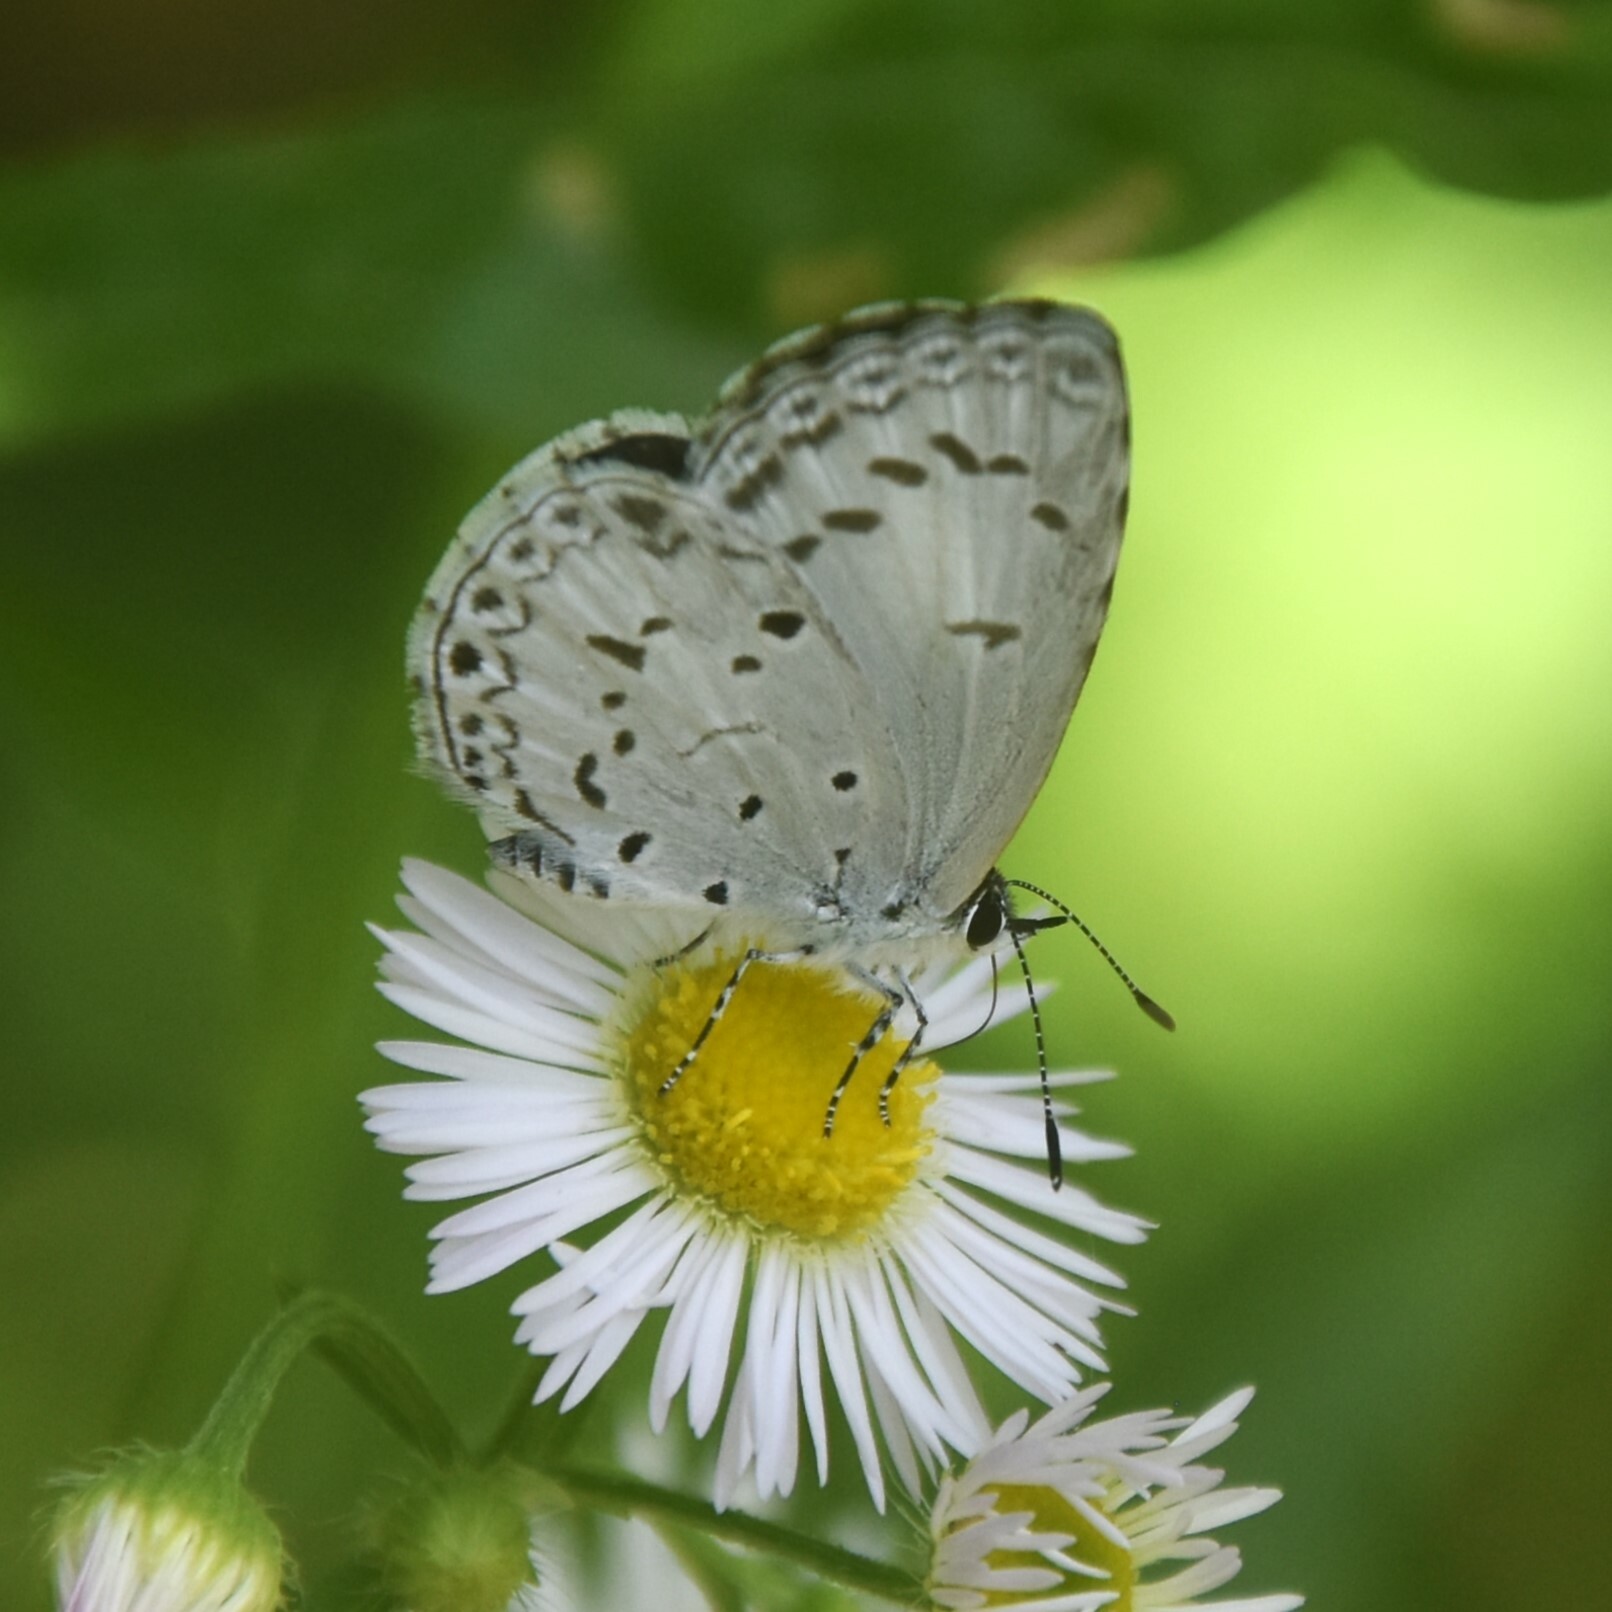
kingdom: Animalia
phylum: Arthropoda
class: Insecta
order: Lepidoptera
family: Lycaenidae
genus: Acytolepis
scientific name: Acytolepis puspa
